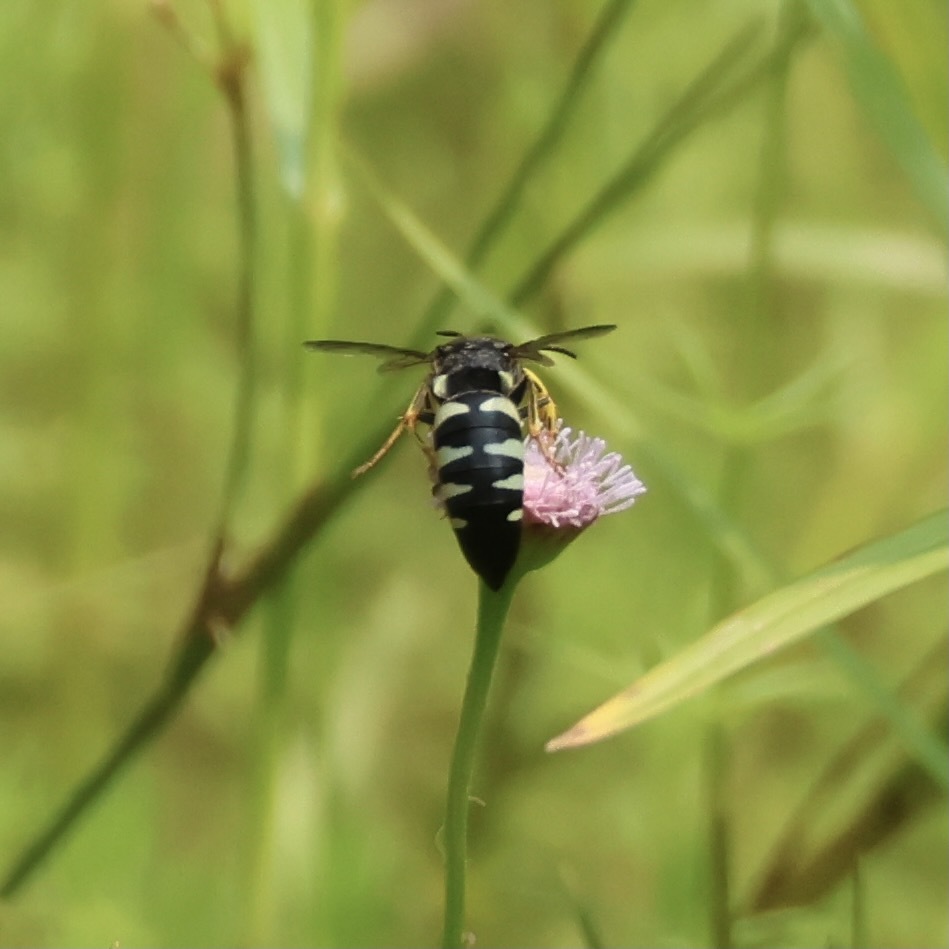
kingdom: Animalia
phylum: Arthropoda
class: Insecta
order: Hymenoptera
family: Crabronidae
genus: Bicyrtes
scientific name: Bicyrtes quadrifasciatus
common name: Four-banded stink bug hunter wasp
